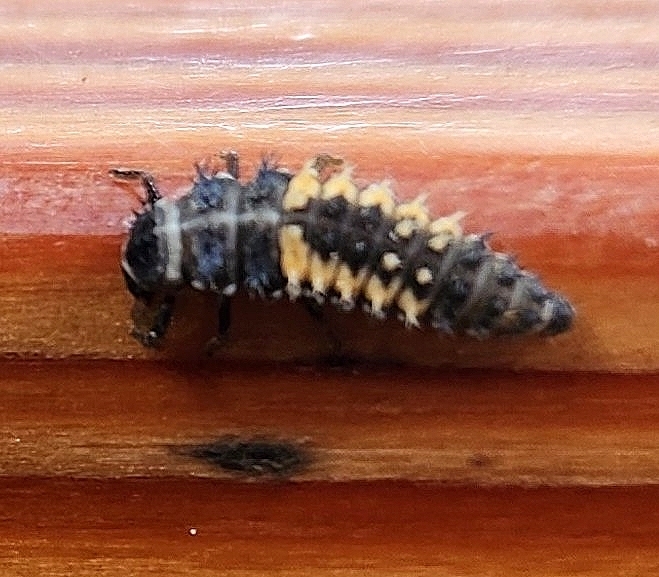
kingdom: Animalia
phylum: Arthropoda
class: Insecta
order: Coleoptera
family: Coccinellidae
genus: Harmonia
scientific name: Harmonia axyridis
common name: Harlequin ladybird
